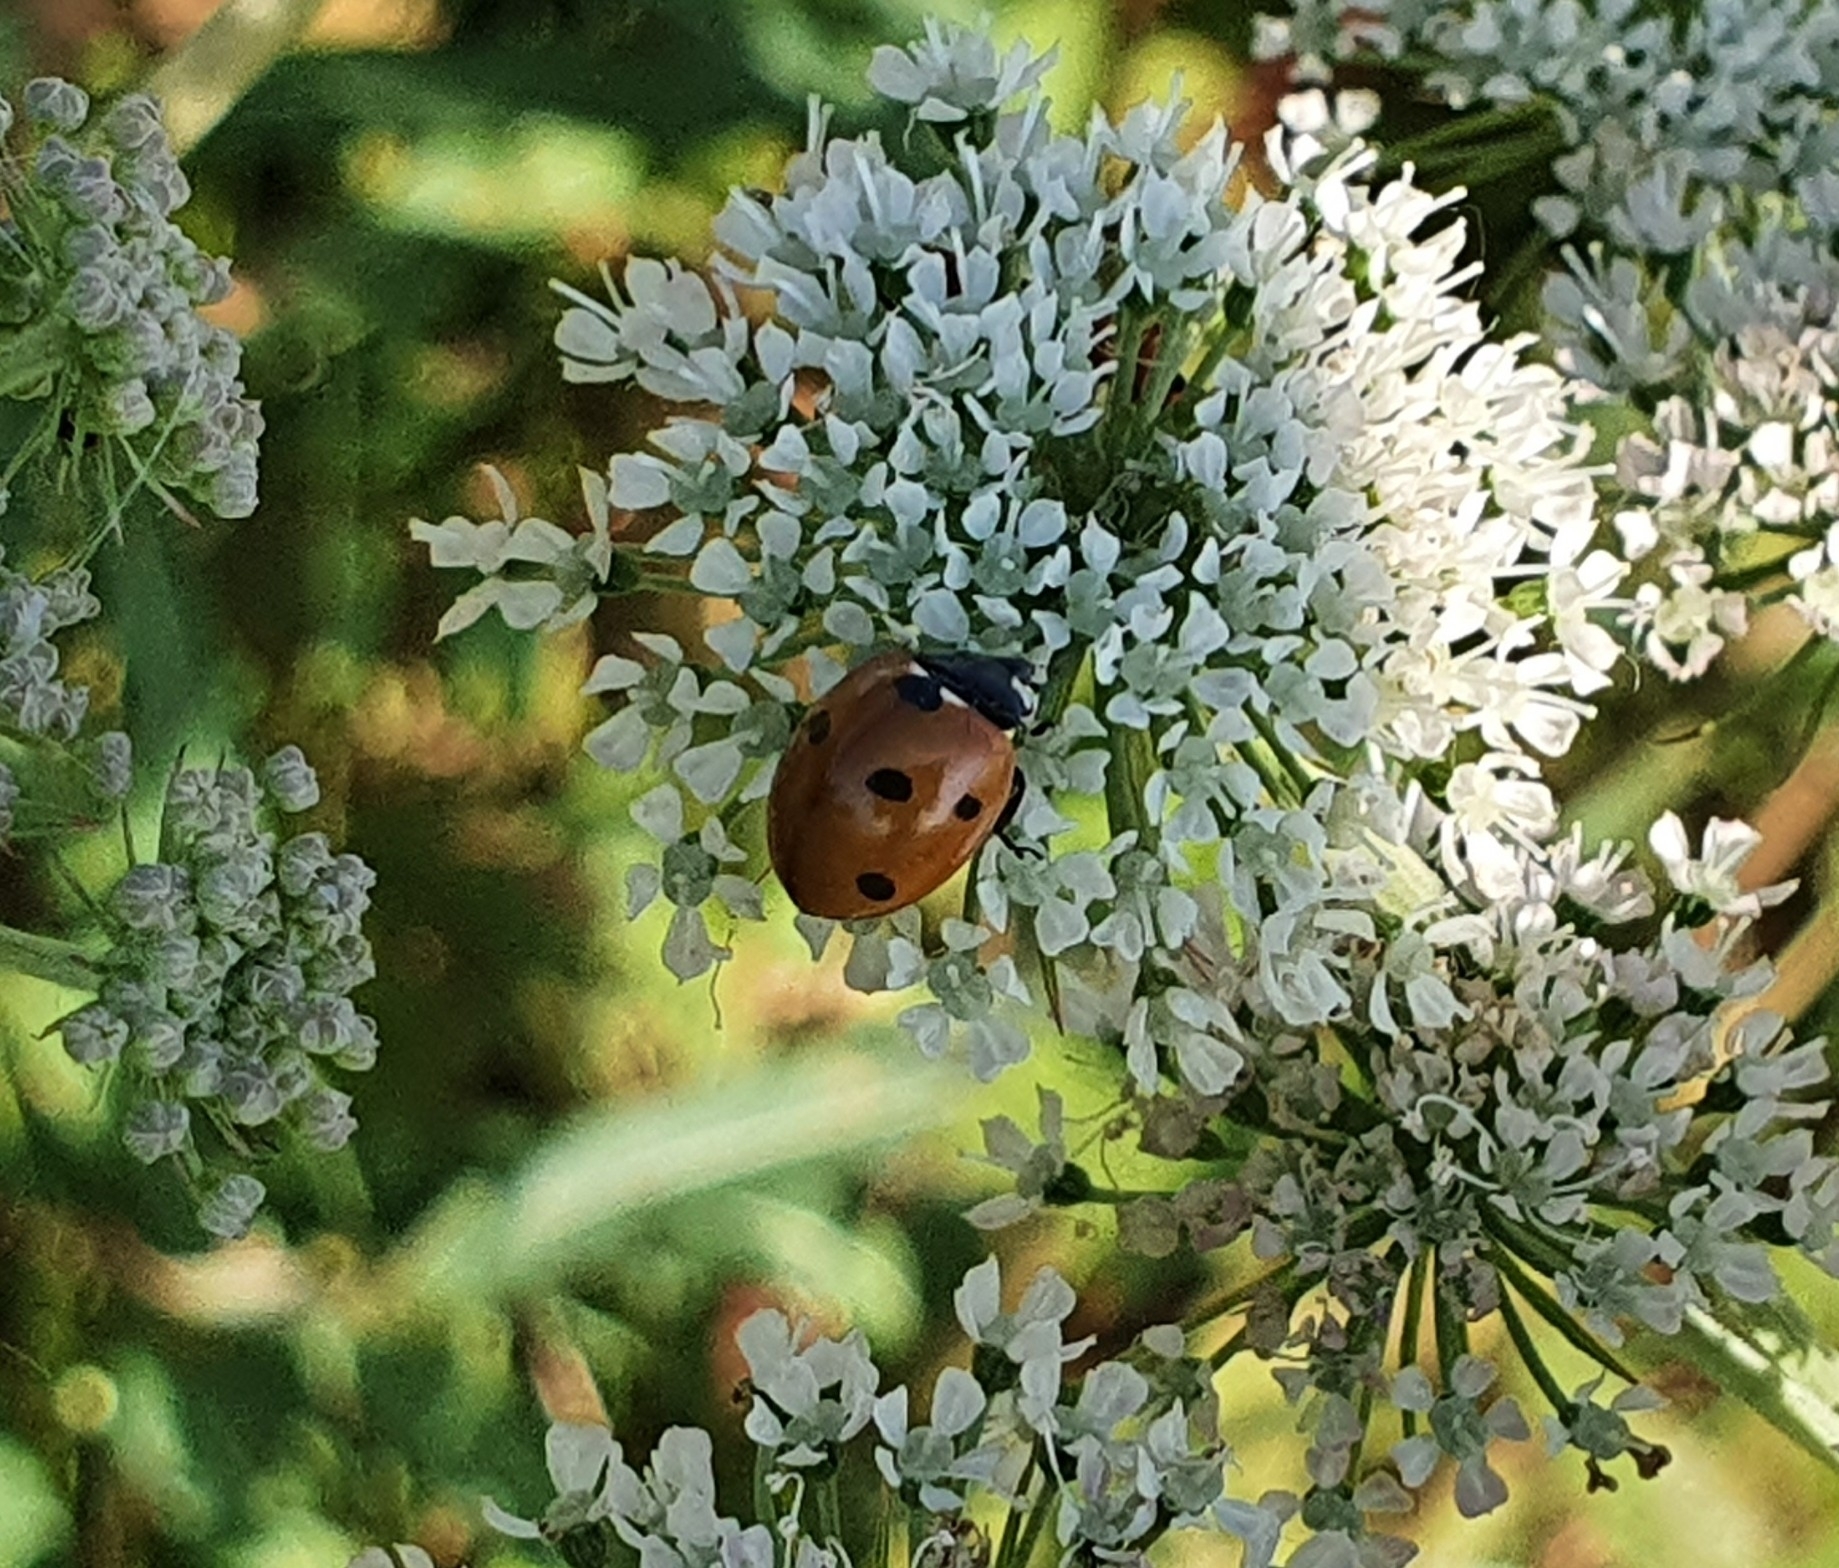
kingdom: Animalia
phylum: Arthropoda
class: Insecta
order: Coleoptera
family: Coccinellidae
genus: Coccinella
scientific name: Coccinella septempunctata
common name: Sevenspotted lady beetle
